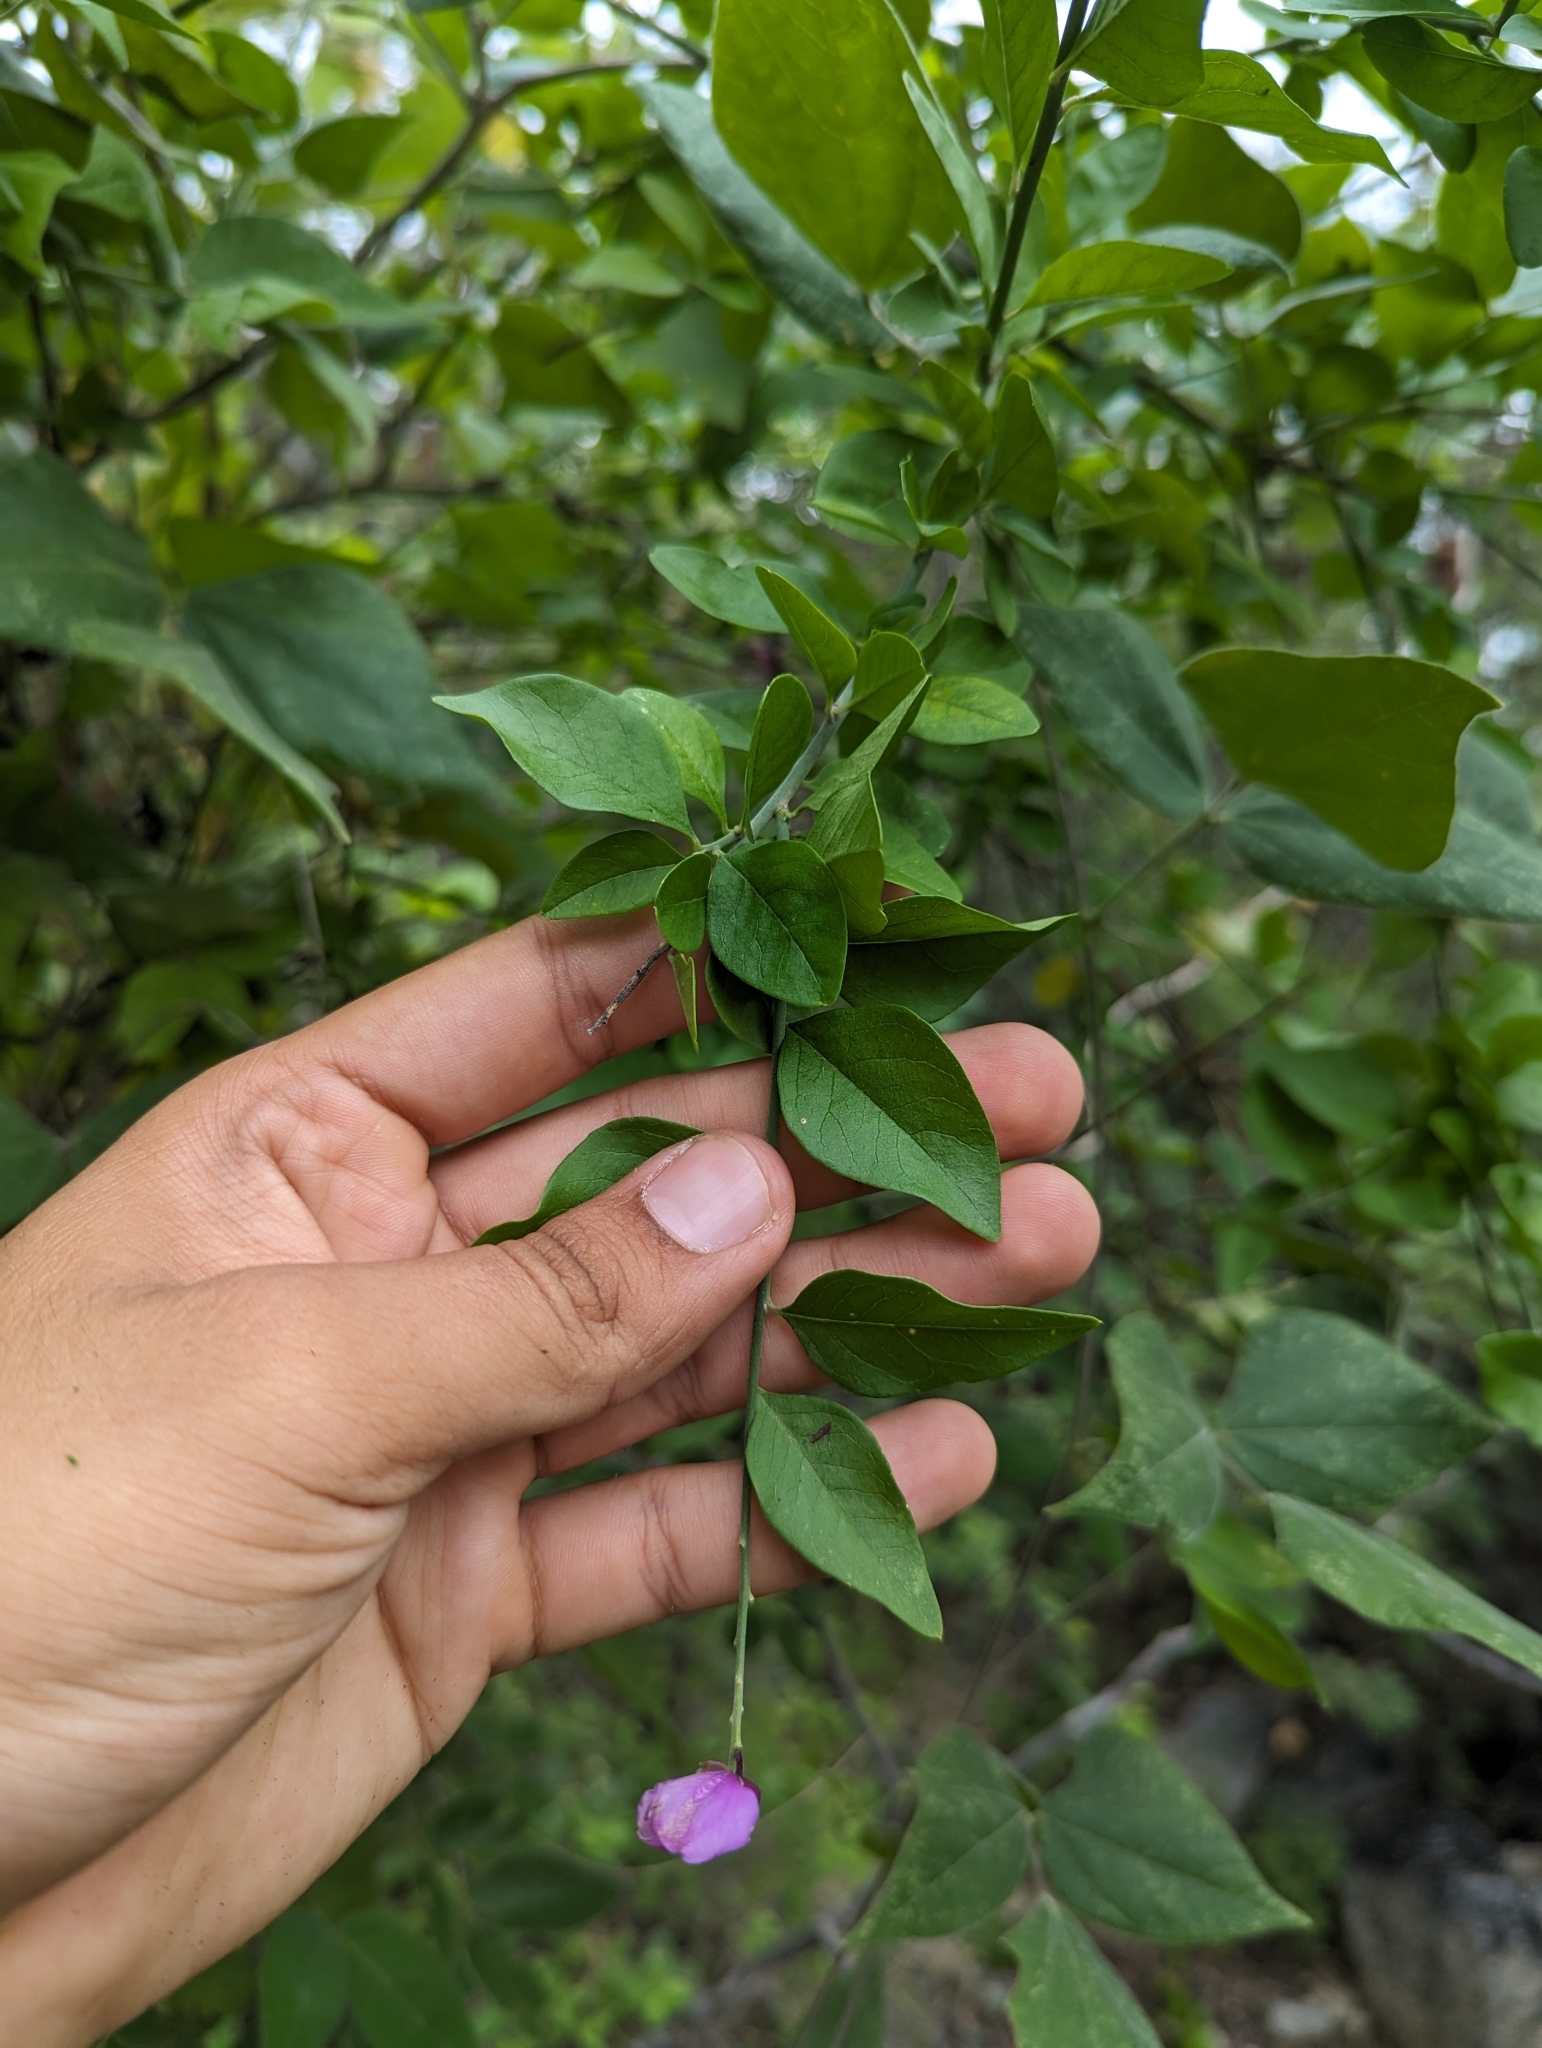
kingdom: Plantae
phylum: Tracheophyta
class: Magnoliopsida
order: Fabales
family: Polygalaceae
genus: Asemeia
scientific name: Asemeia apopetala
